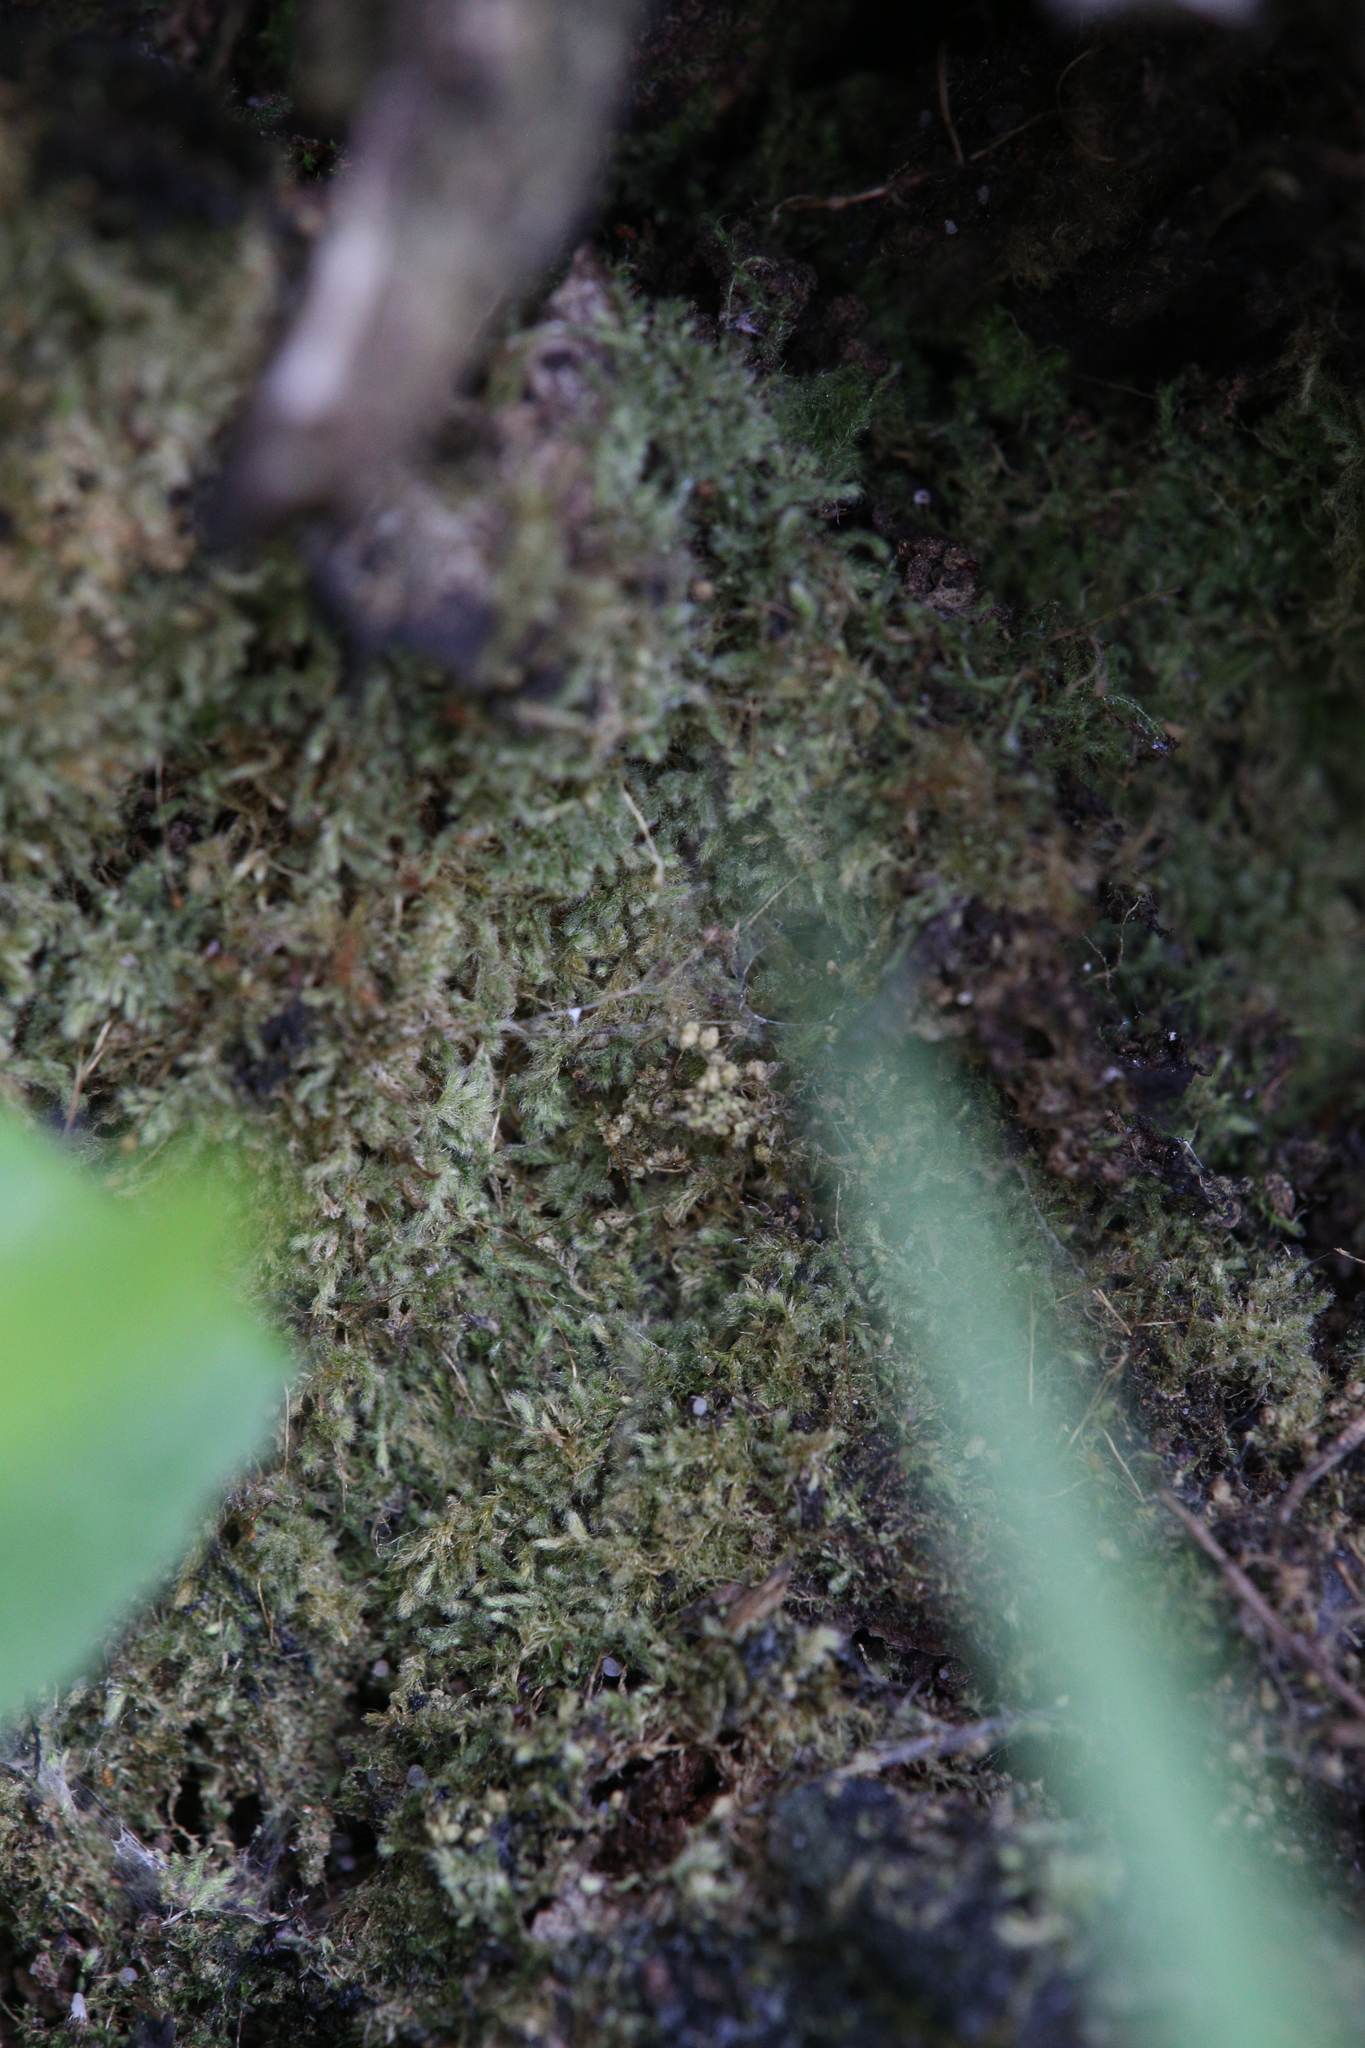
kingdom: Plantae
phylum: Bryophyta
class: Bryopsida
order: Hypnales
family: Fabroniaceae
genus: Fabronia
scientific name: Fabronia hampeana
